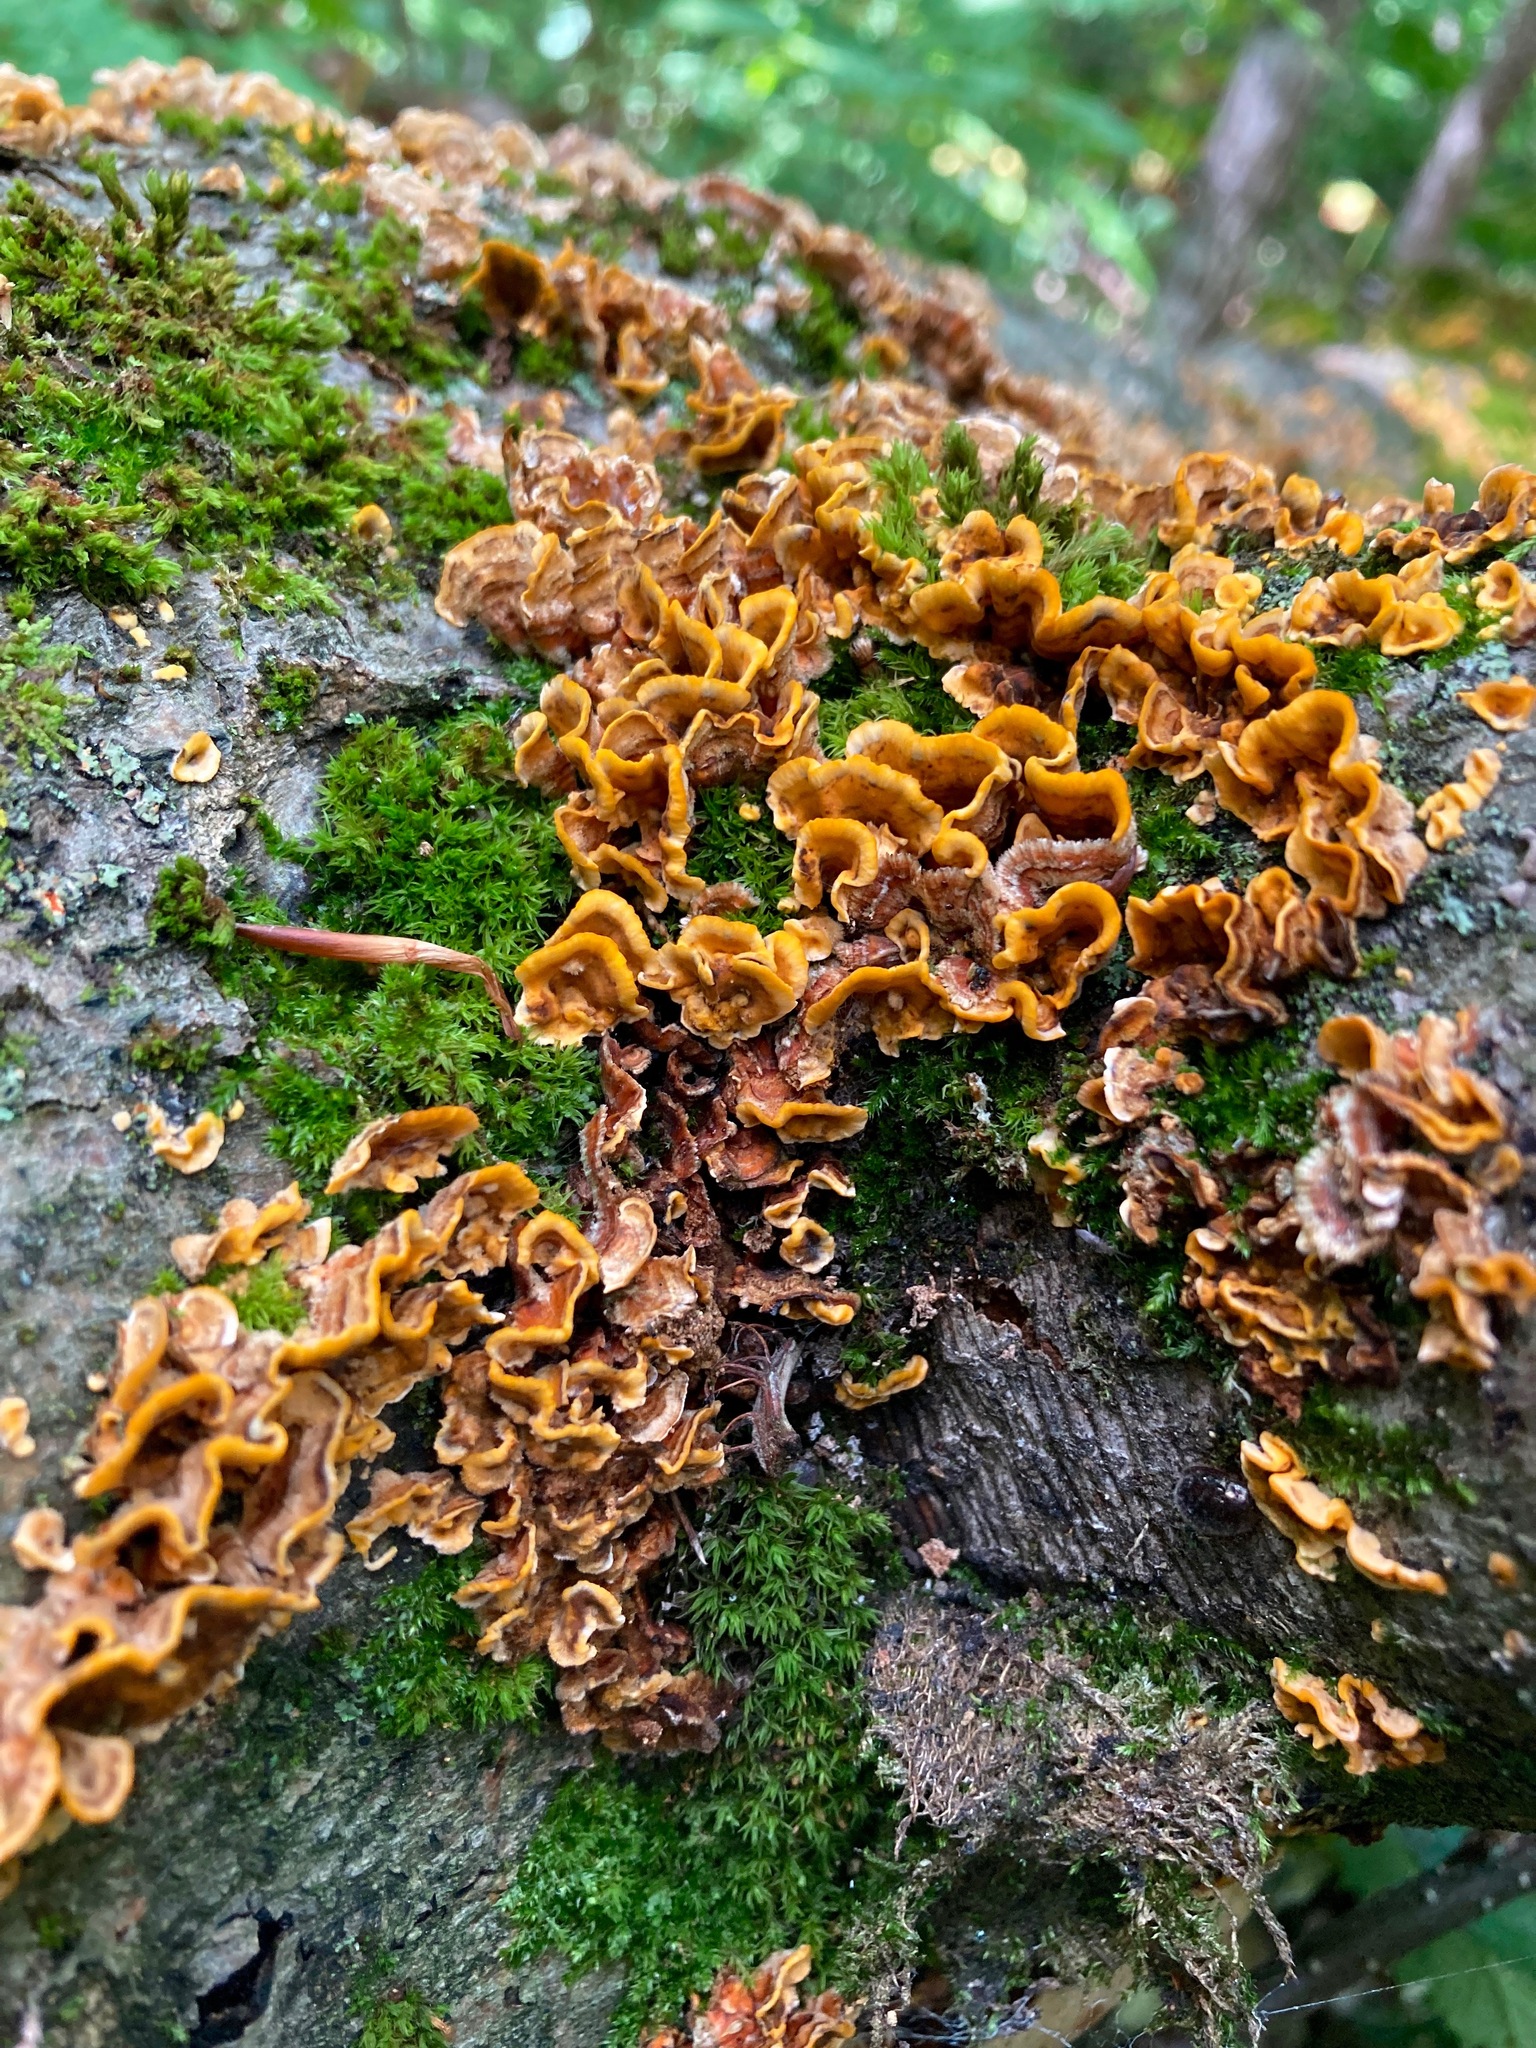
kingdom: Fungi
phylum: Basidiomycota
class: Agaricomycetes
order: Russulales
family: Stereaceae
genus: Stereum
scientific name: Stereum hirsutum
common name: Hairy curtain crust
